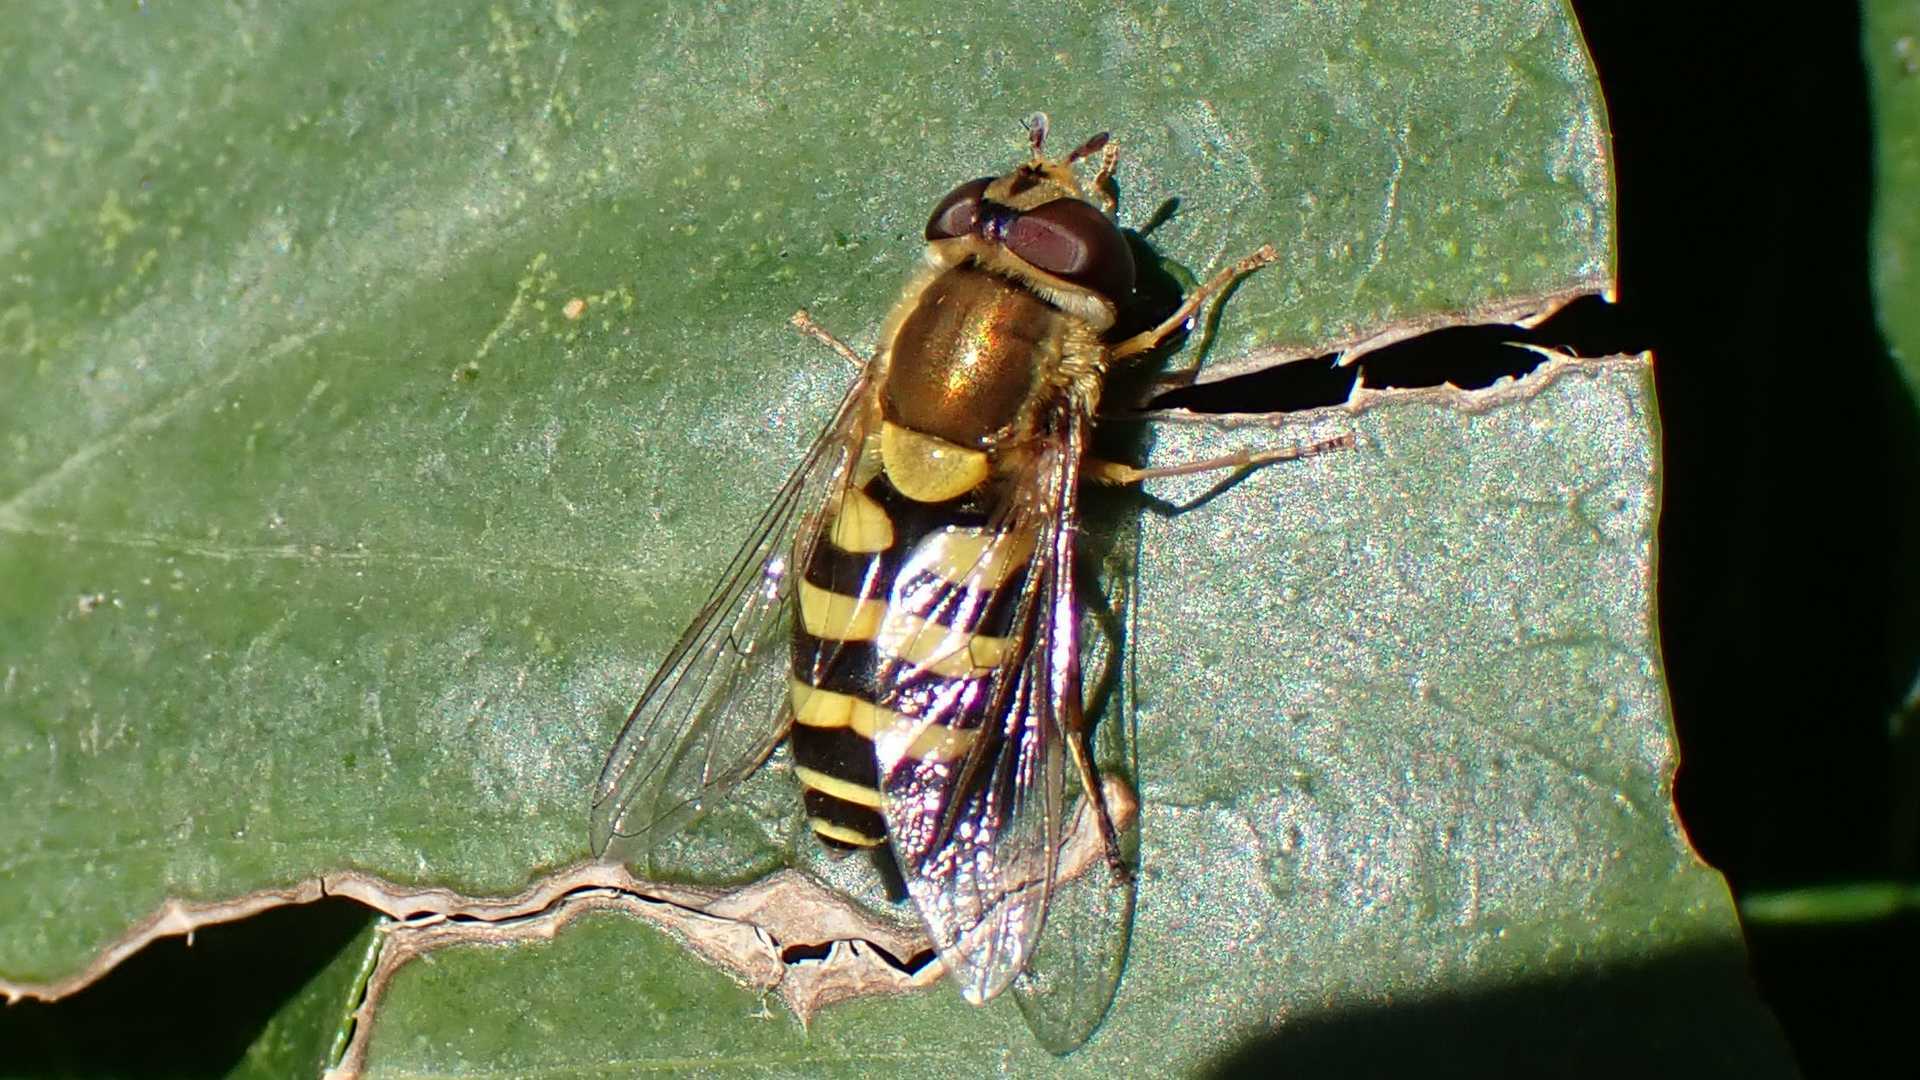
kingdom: Animalia
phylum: Arthropoda
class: Insecta
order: Diptera
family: Syrphidae
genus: Syrphus
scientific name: Syrphus
